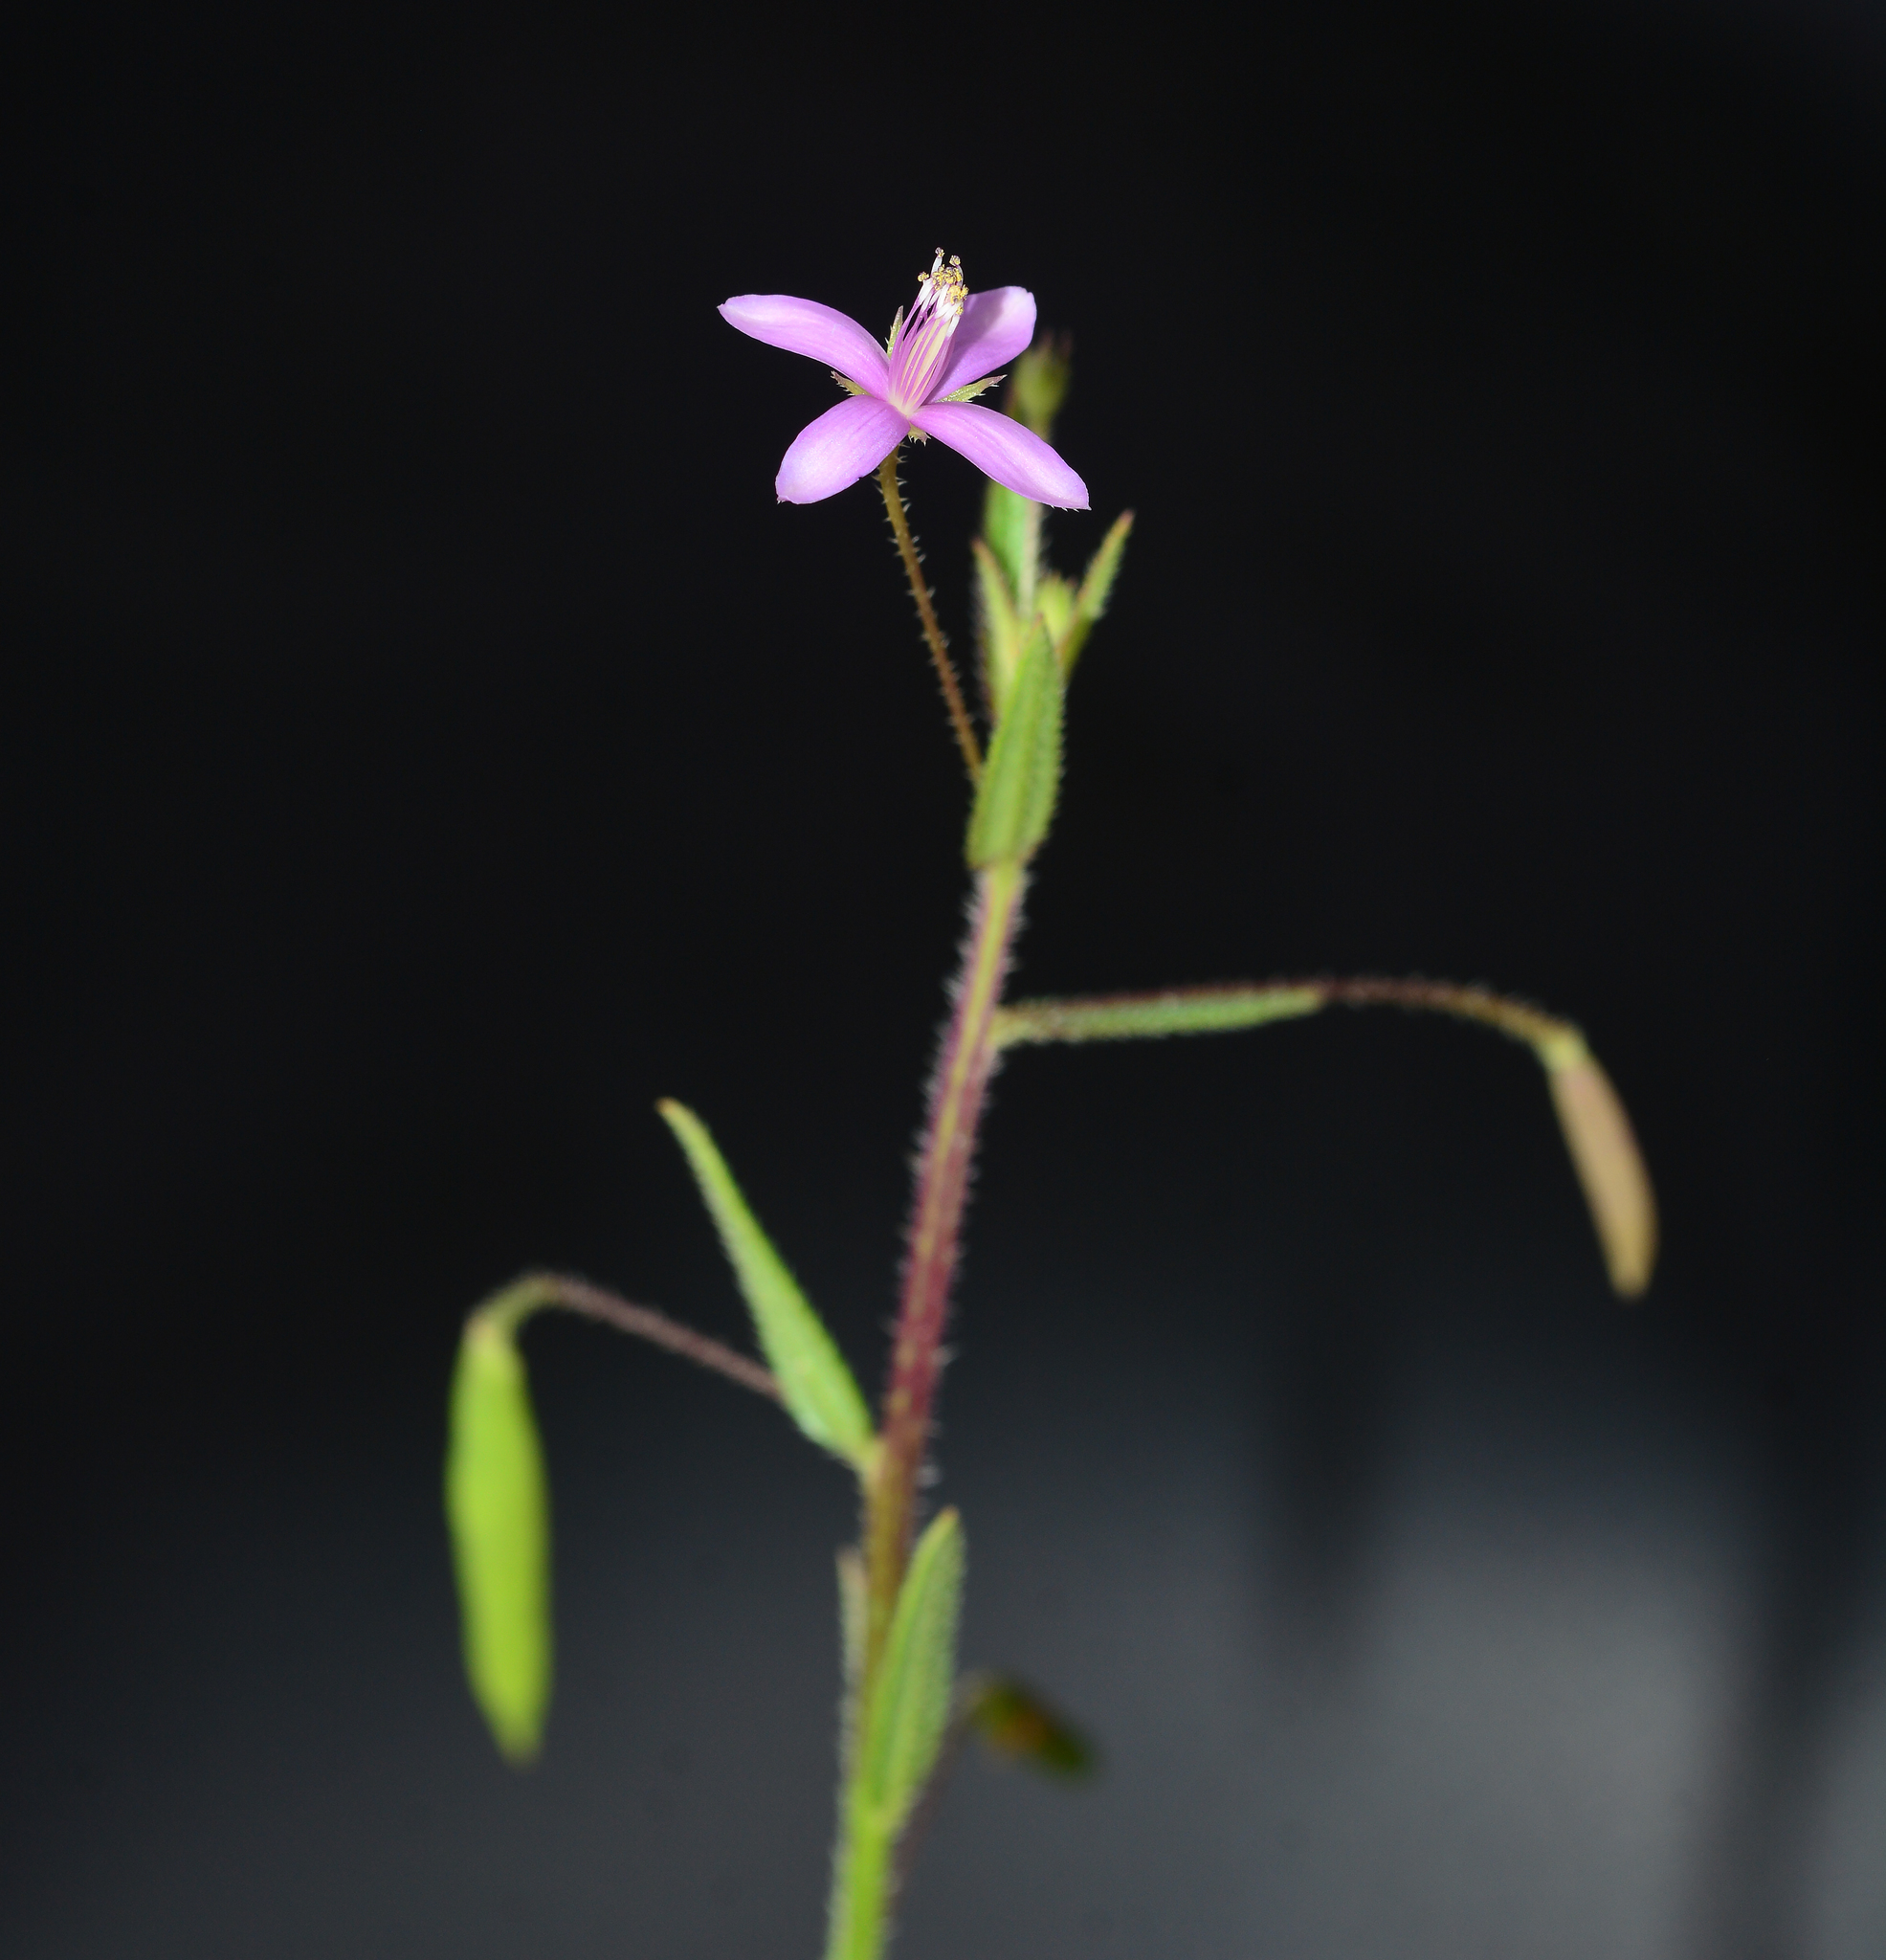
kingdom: Plantae
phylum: Tracheophyta
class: Magnoliopsida
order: Brassicales
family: Cleomaceae
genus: Corynandra
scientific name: Corynandra simplicifolia
